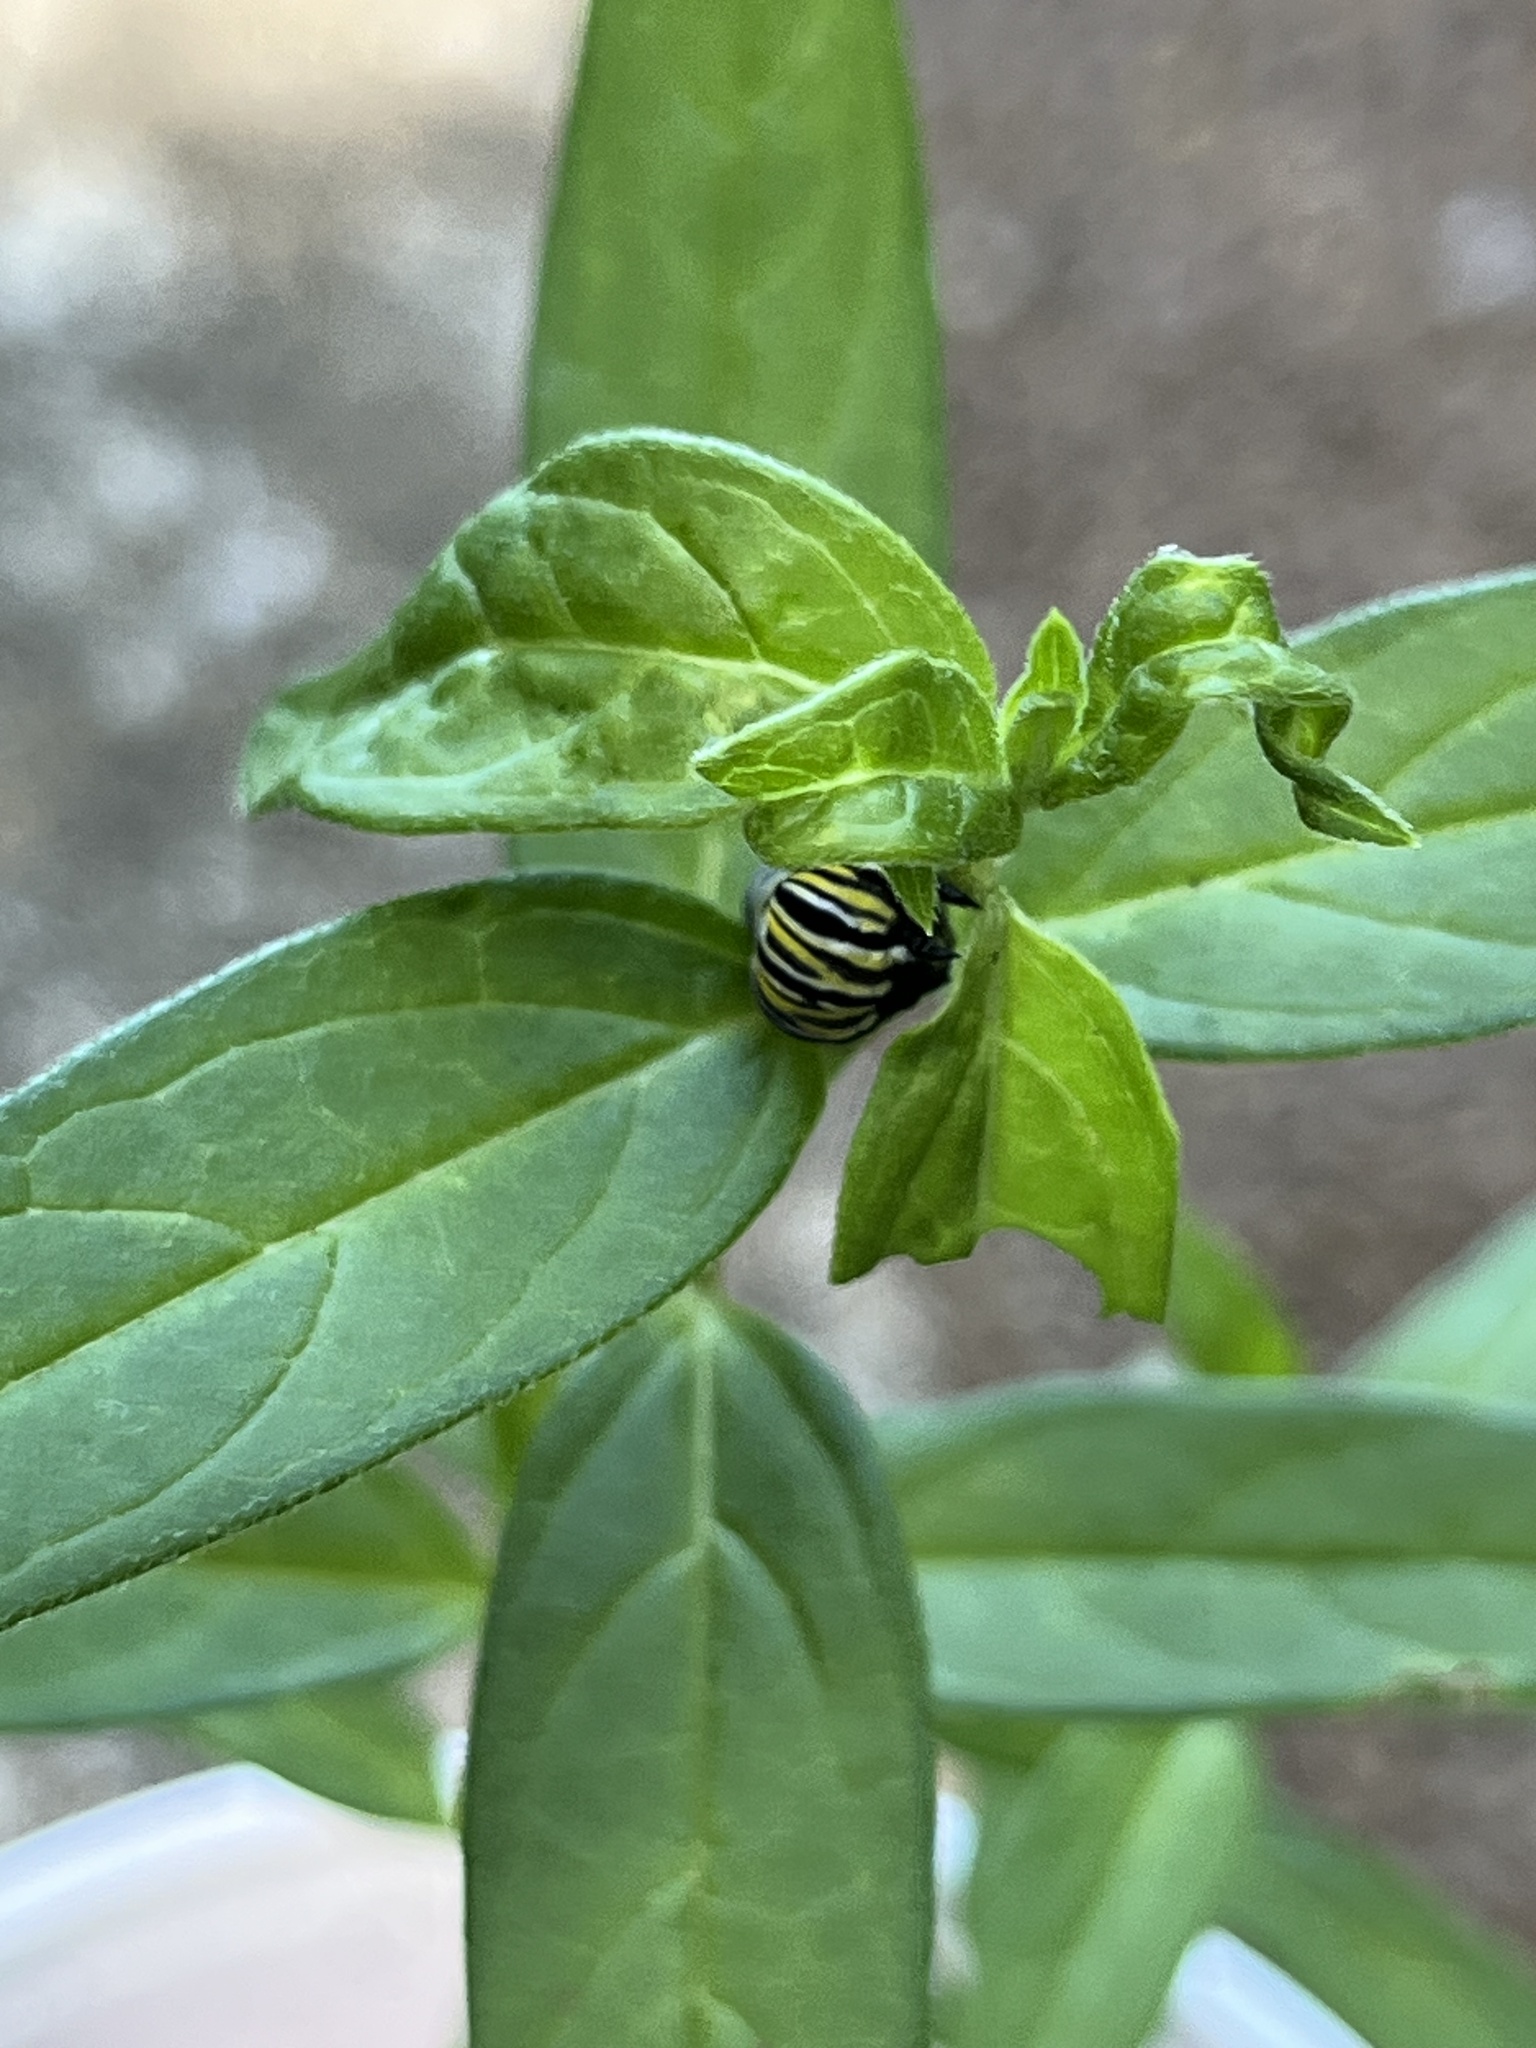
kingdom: Animalia
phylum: Arthropoda
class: Insecta
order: Lepidoptera
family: Nymphalidae
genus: Danaus
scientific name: Danaus plexippus
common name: Monarch
